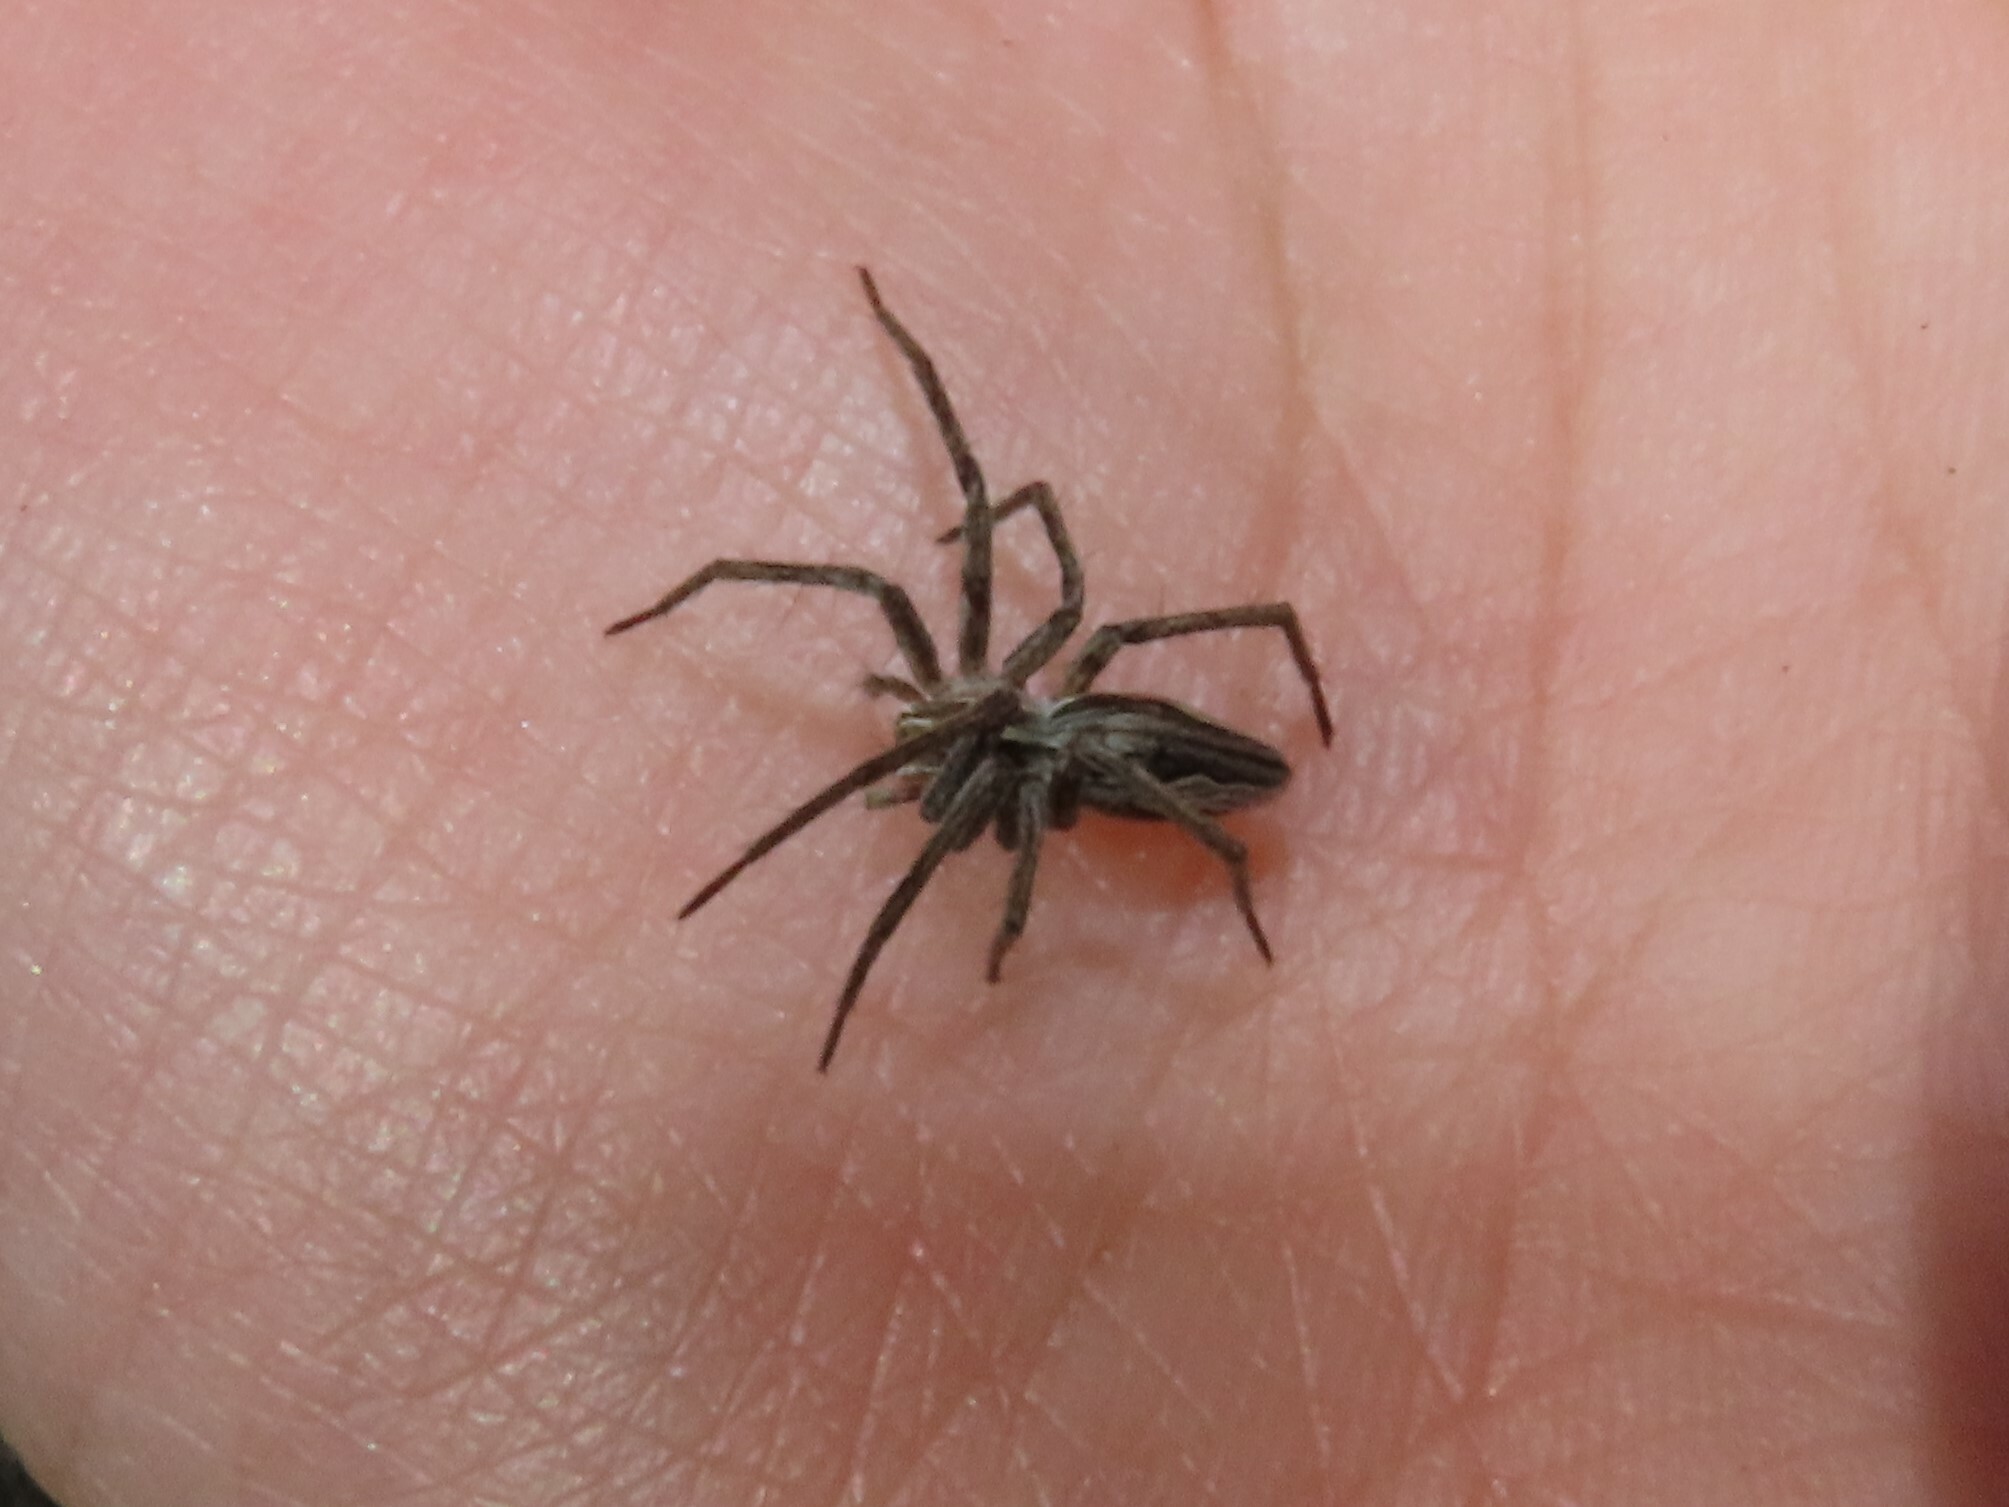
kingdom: Animalia
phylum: Arthropoda
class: Arachnida
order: Araneae
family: Pisauridae
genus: Pisaura
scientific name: Pisaura mirabilis
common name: Tent spider
